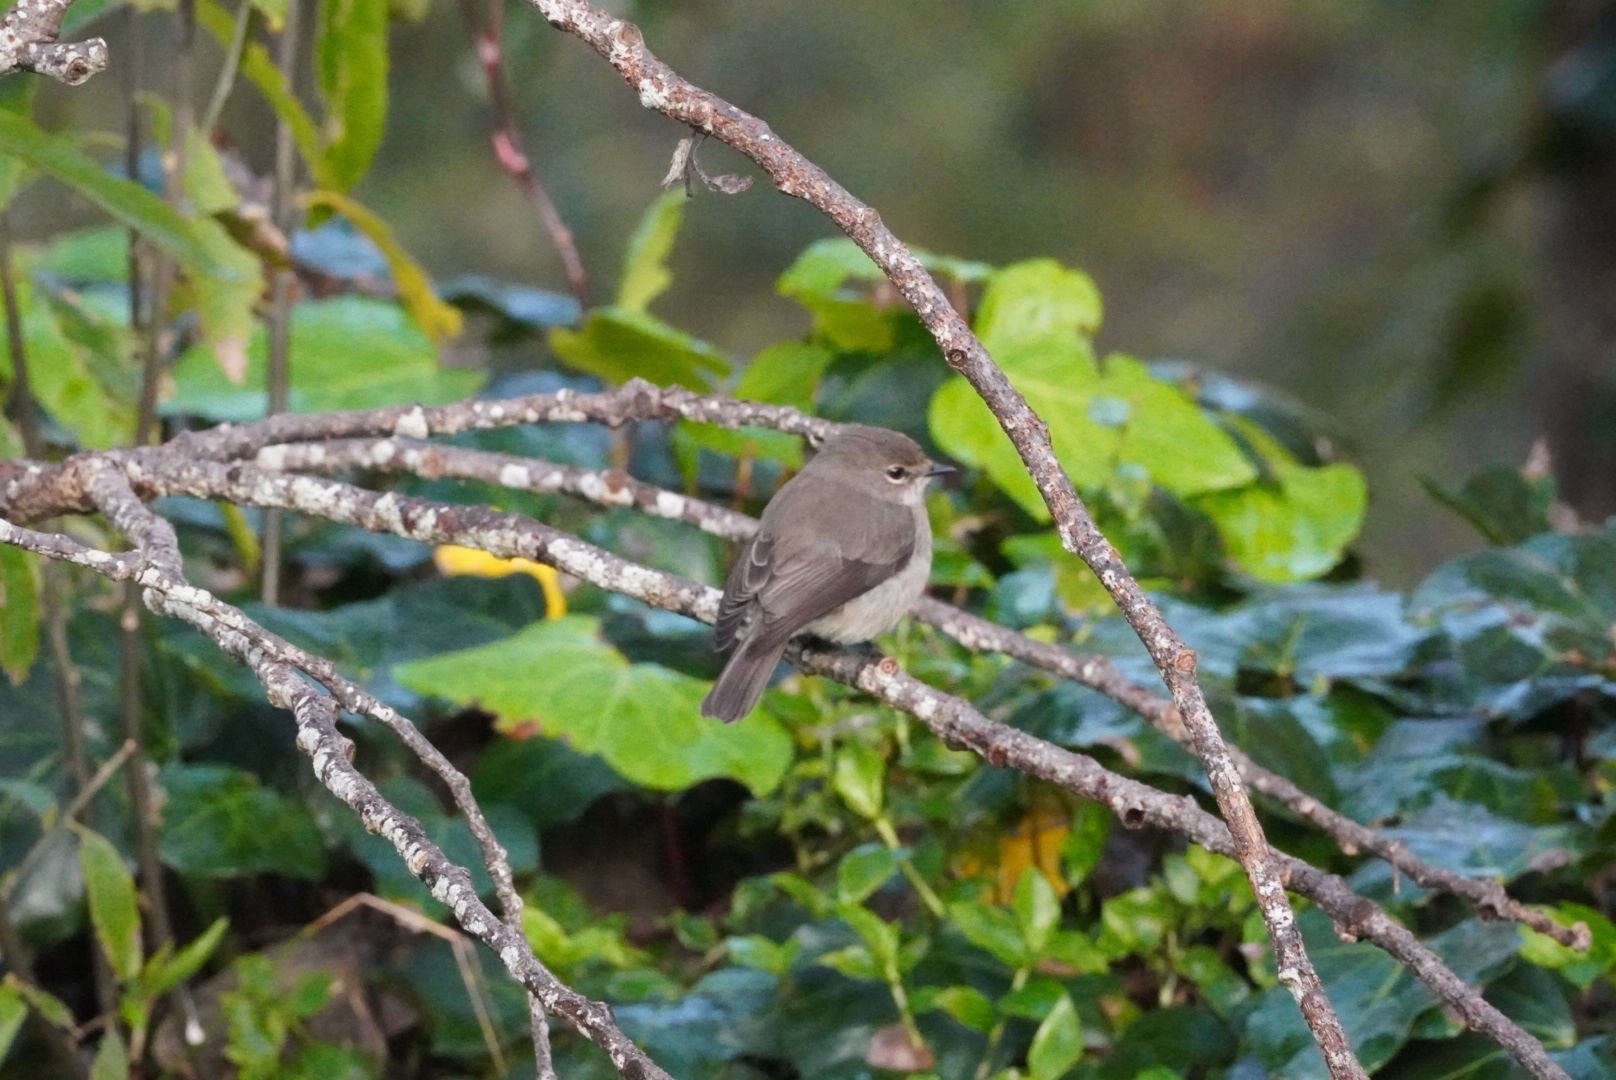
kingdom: Animalia
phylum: Chordata
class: Aves
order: Passeriformes
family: Muscicapidae
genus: Muscicapa
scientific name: Muscicapa adusta
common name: African dusky flycatcher
